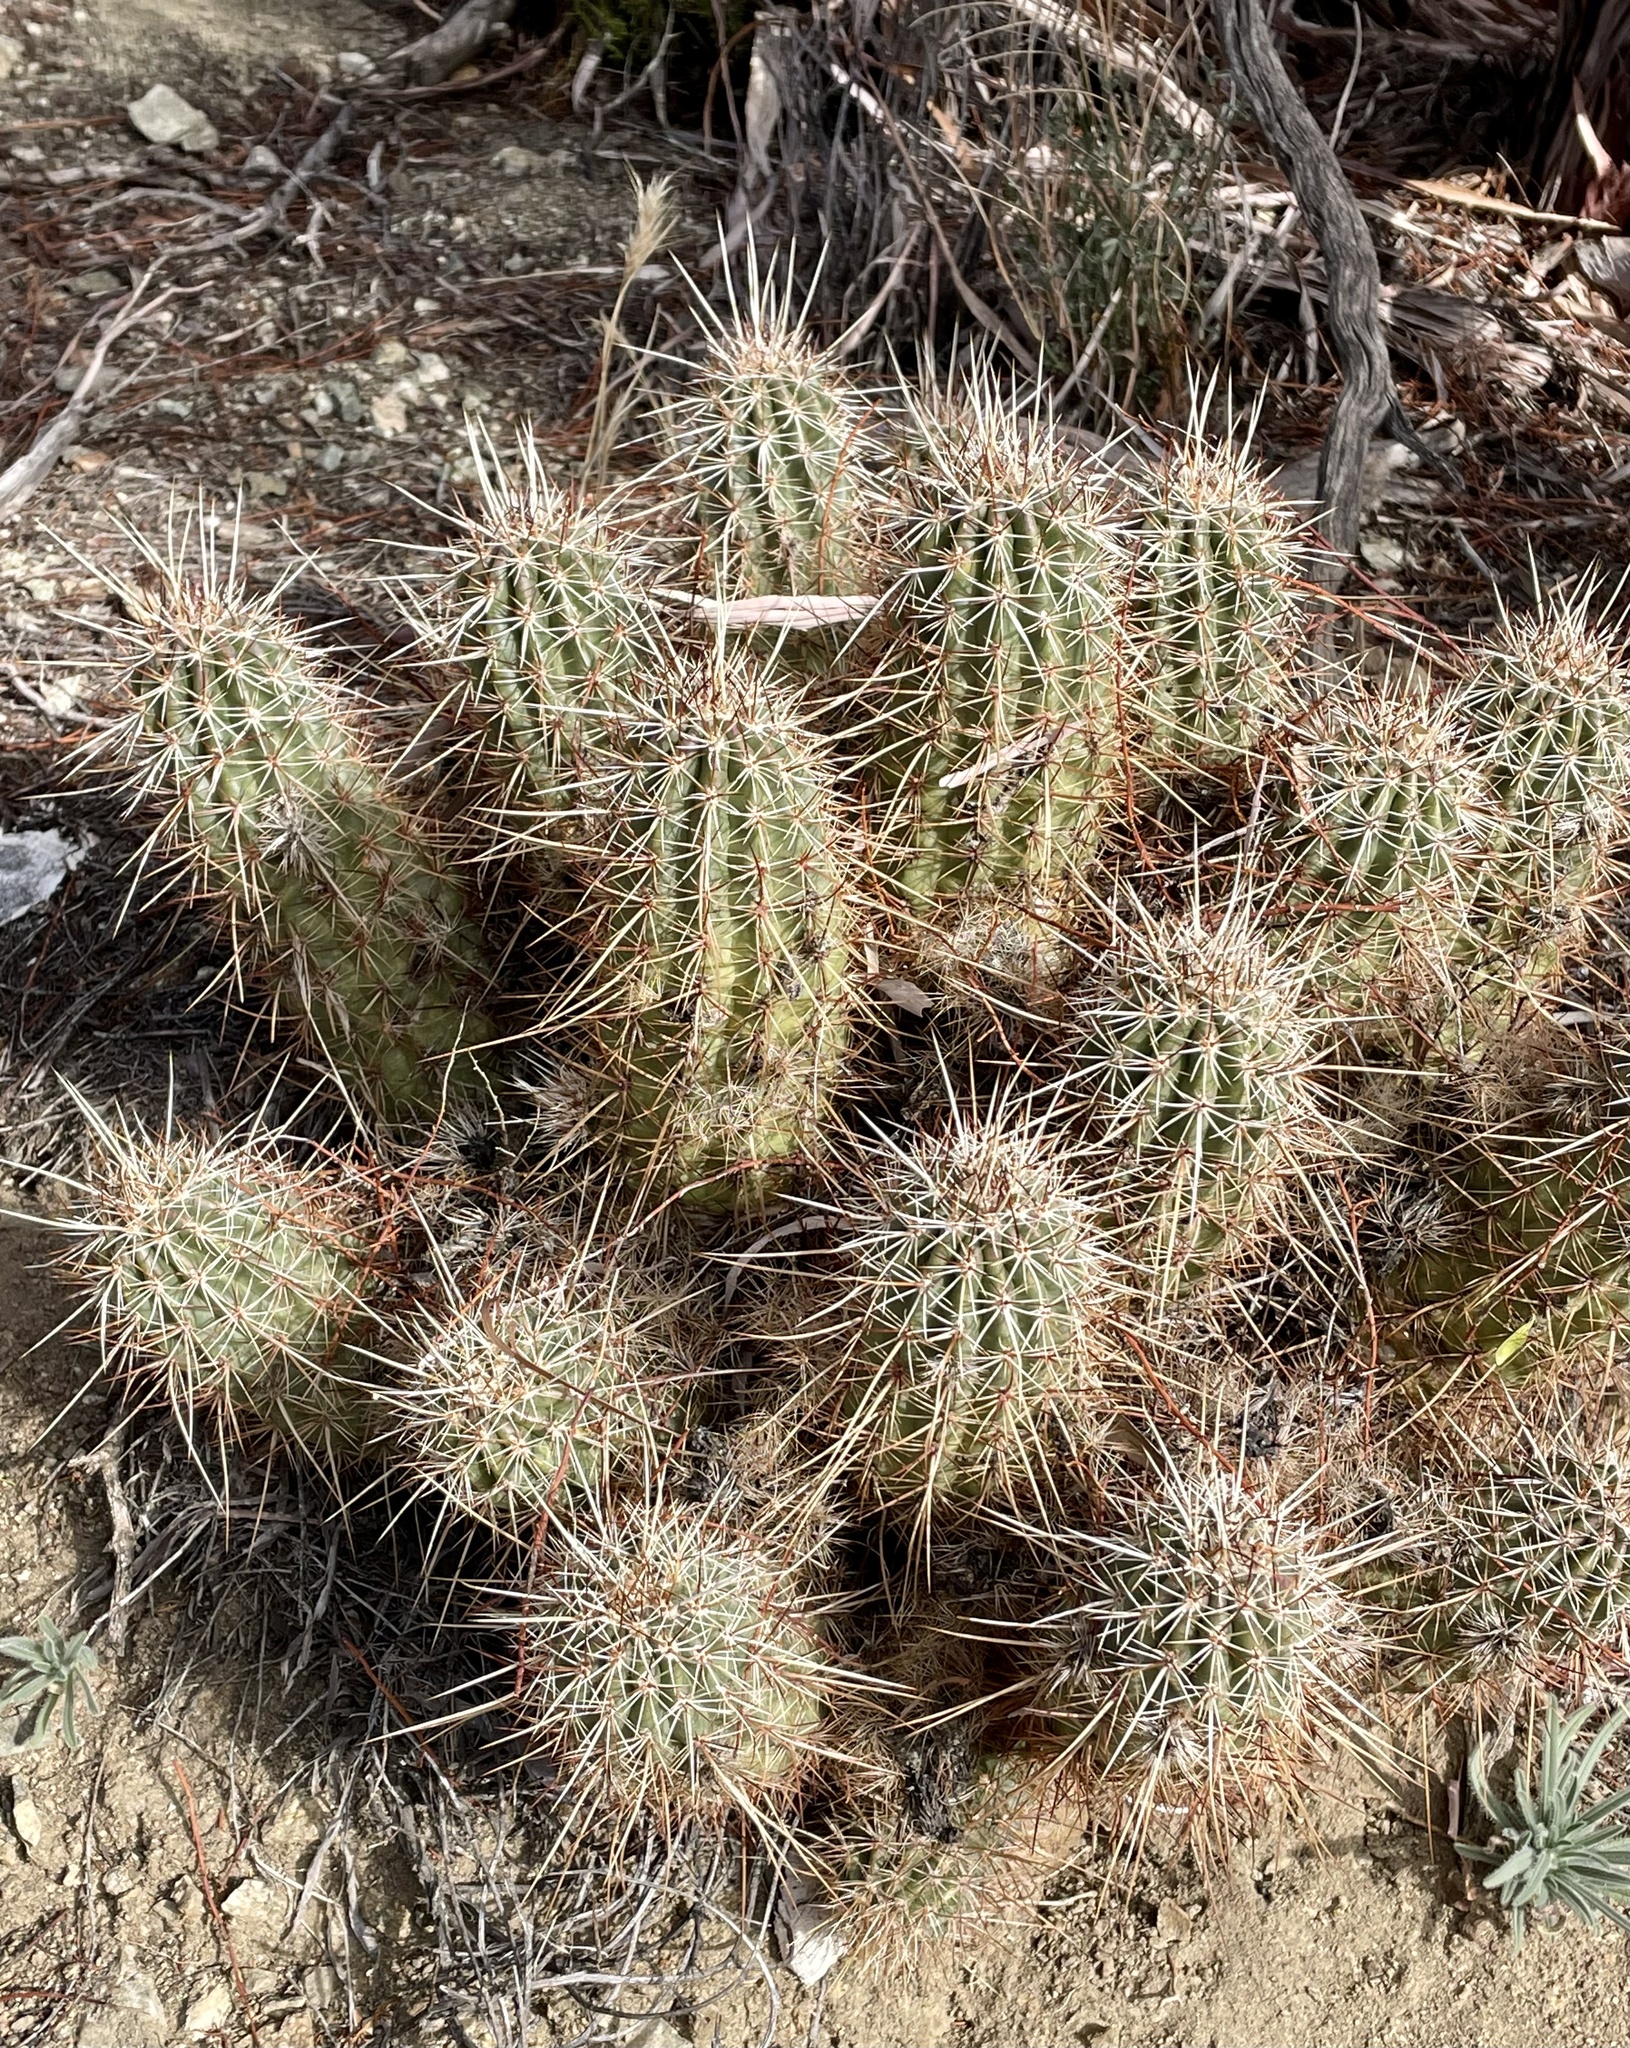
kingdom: Plantae
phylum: Tracheophyta
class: Magnoliopsida
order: Caryophyllales
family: Cactaceae
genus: Echinocereus
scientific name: Echinocereus engelmannii
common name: Engelmann's hedgehog cactus
